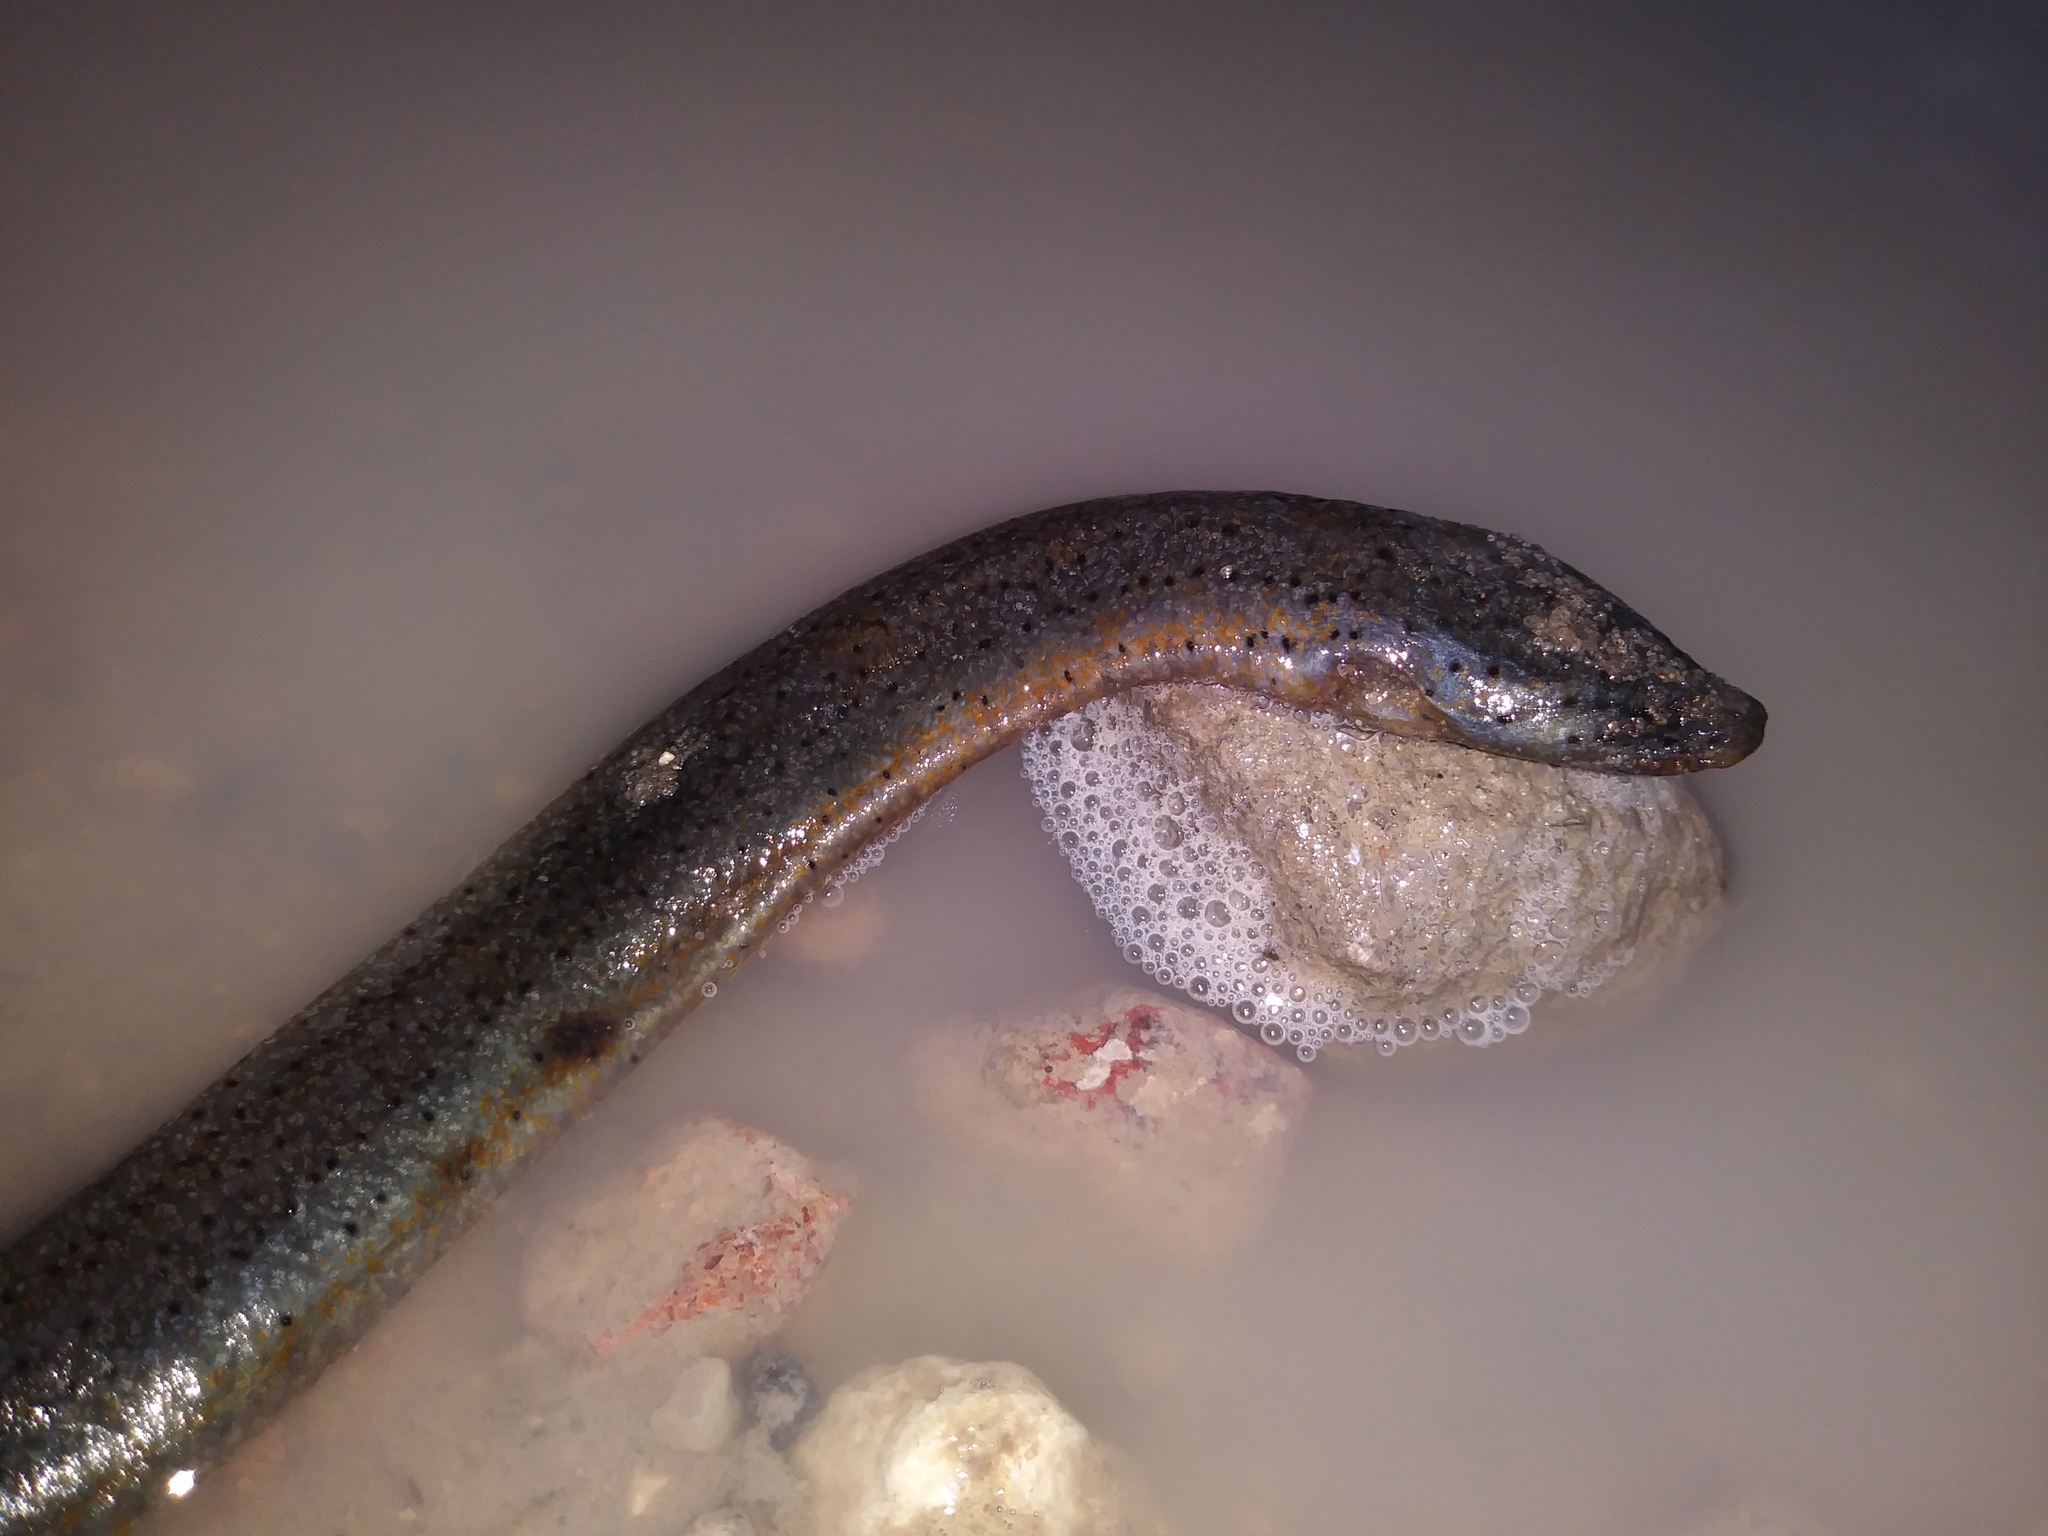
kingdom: Animalia
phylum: Chordata
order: Synbranchiformes
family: Synbranchidae
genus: Monopterus
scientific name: Monopterus
